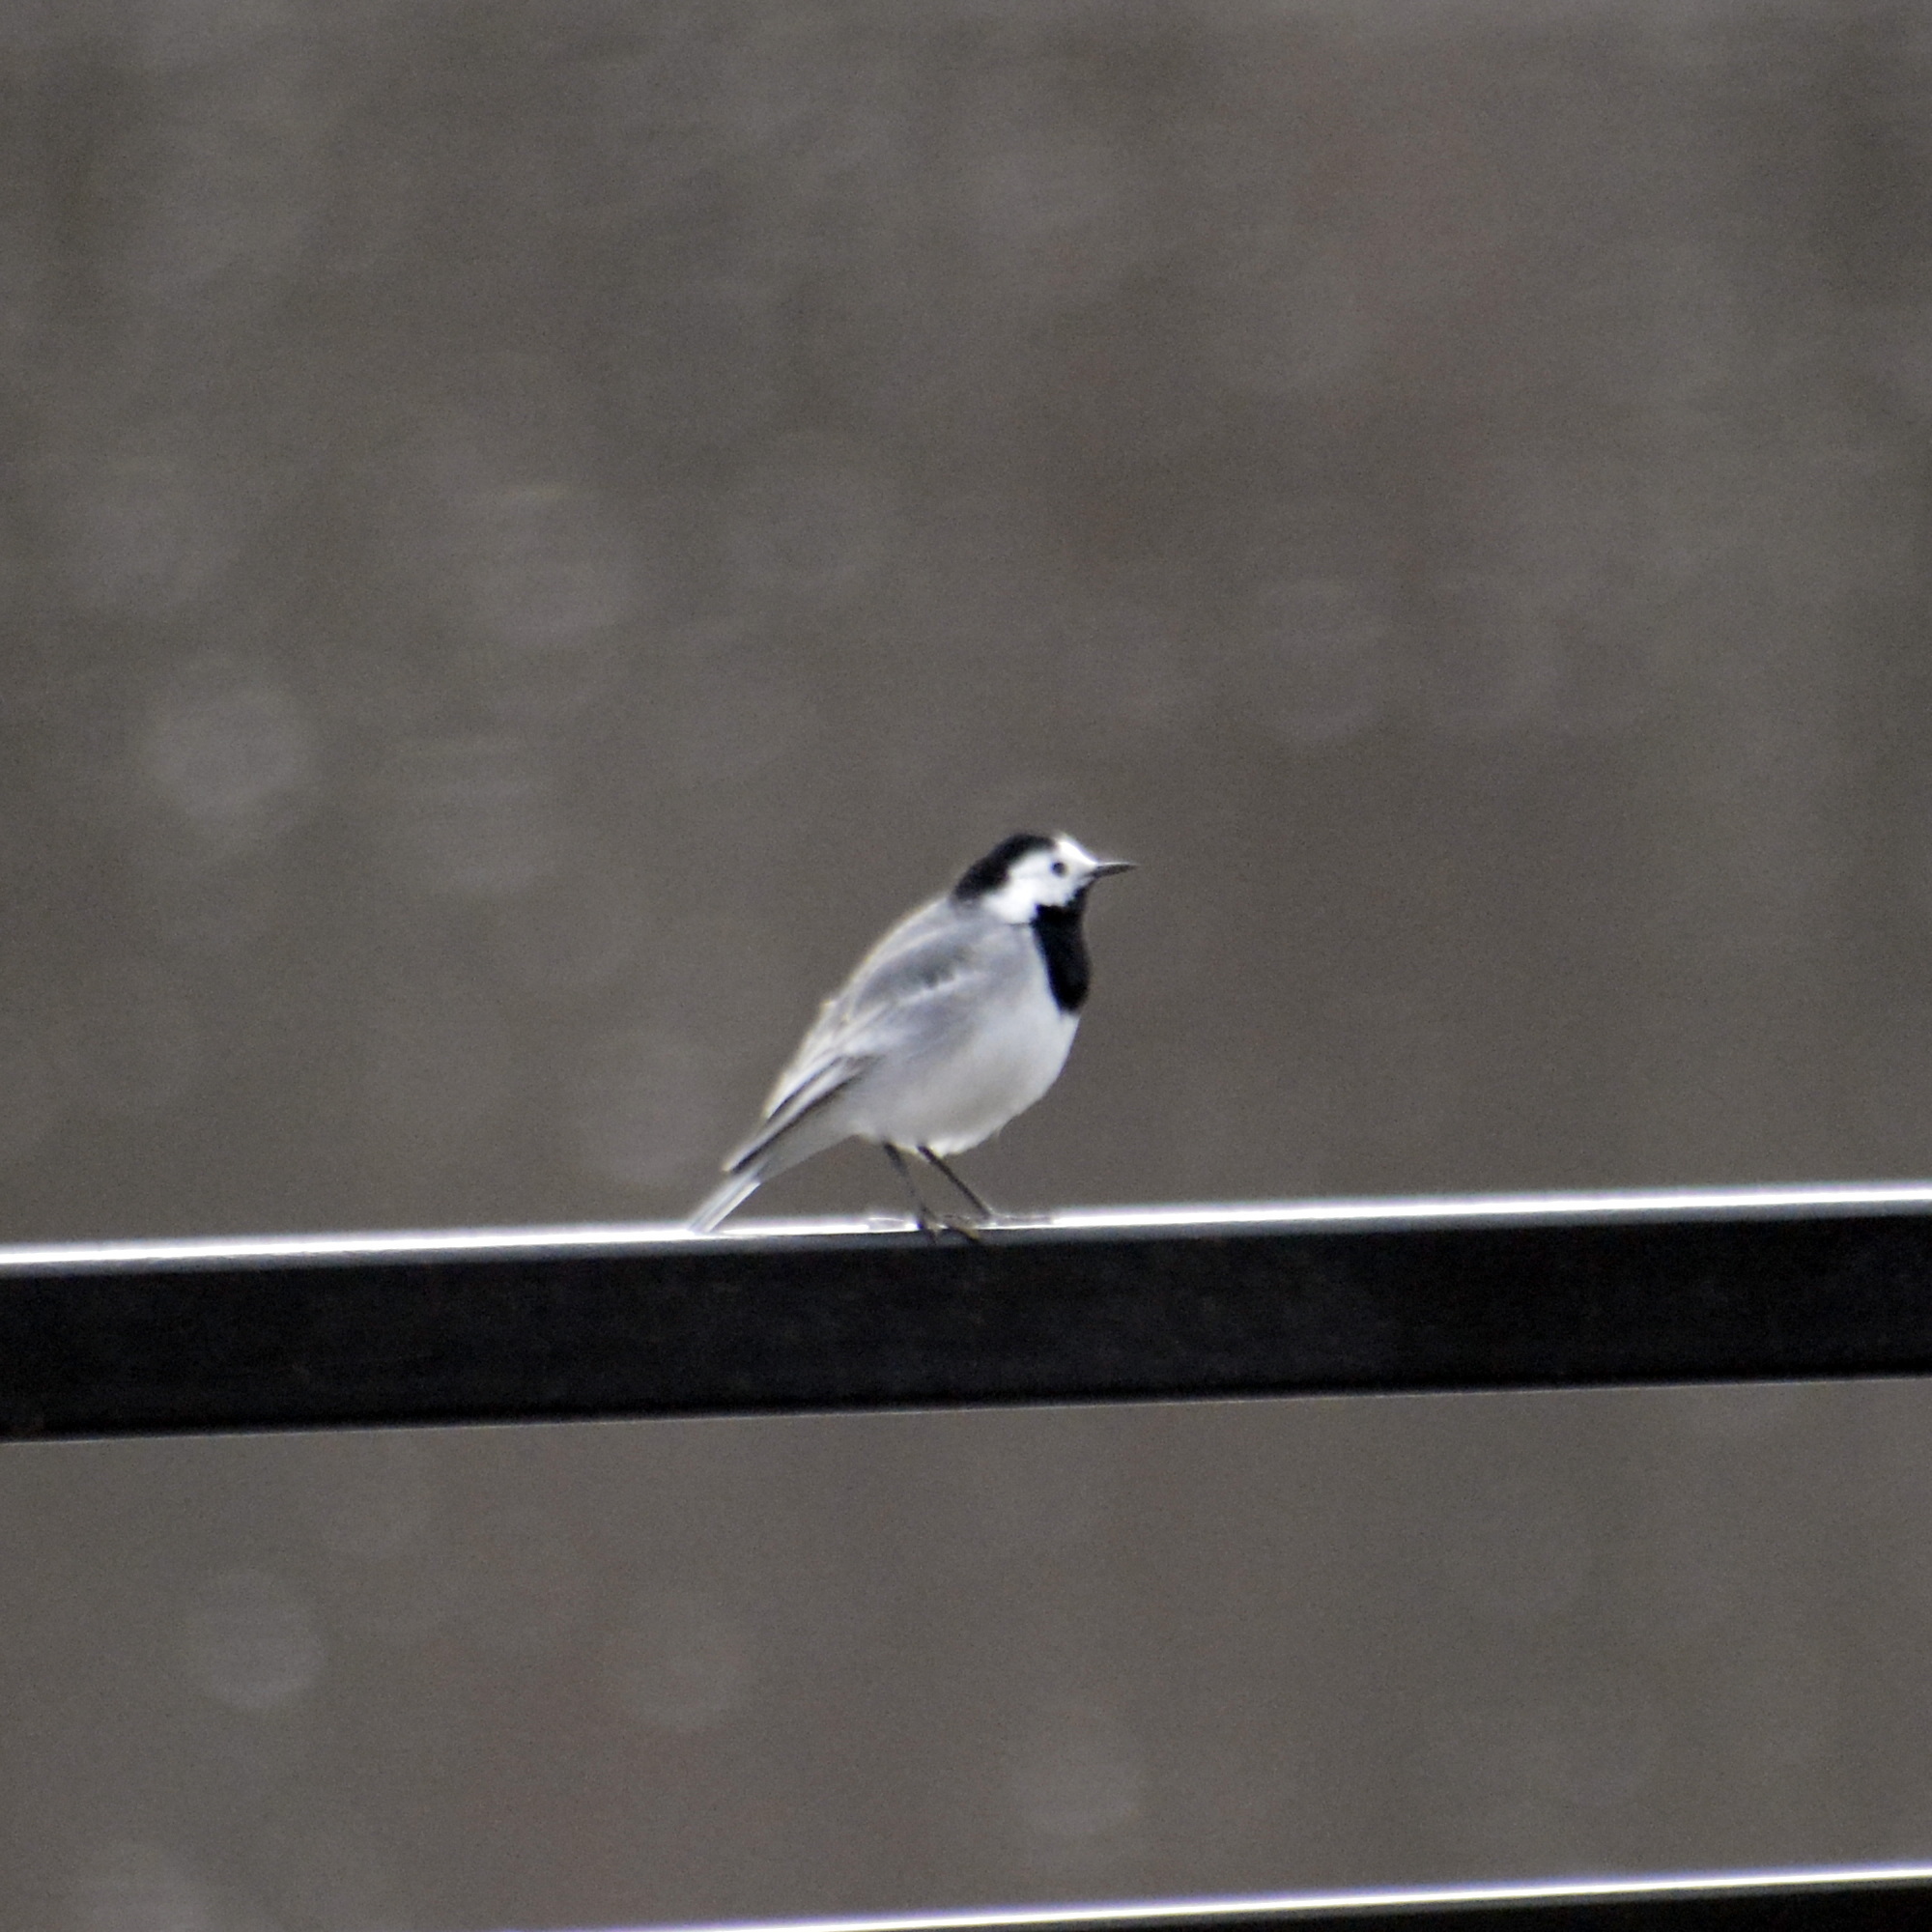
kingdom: Animalia
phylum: Chordata
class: Aves
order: Passeriformes
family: Motacillidae
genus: Motacilla
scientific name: Motacilla alba
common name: White wagtail
